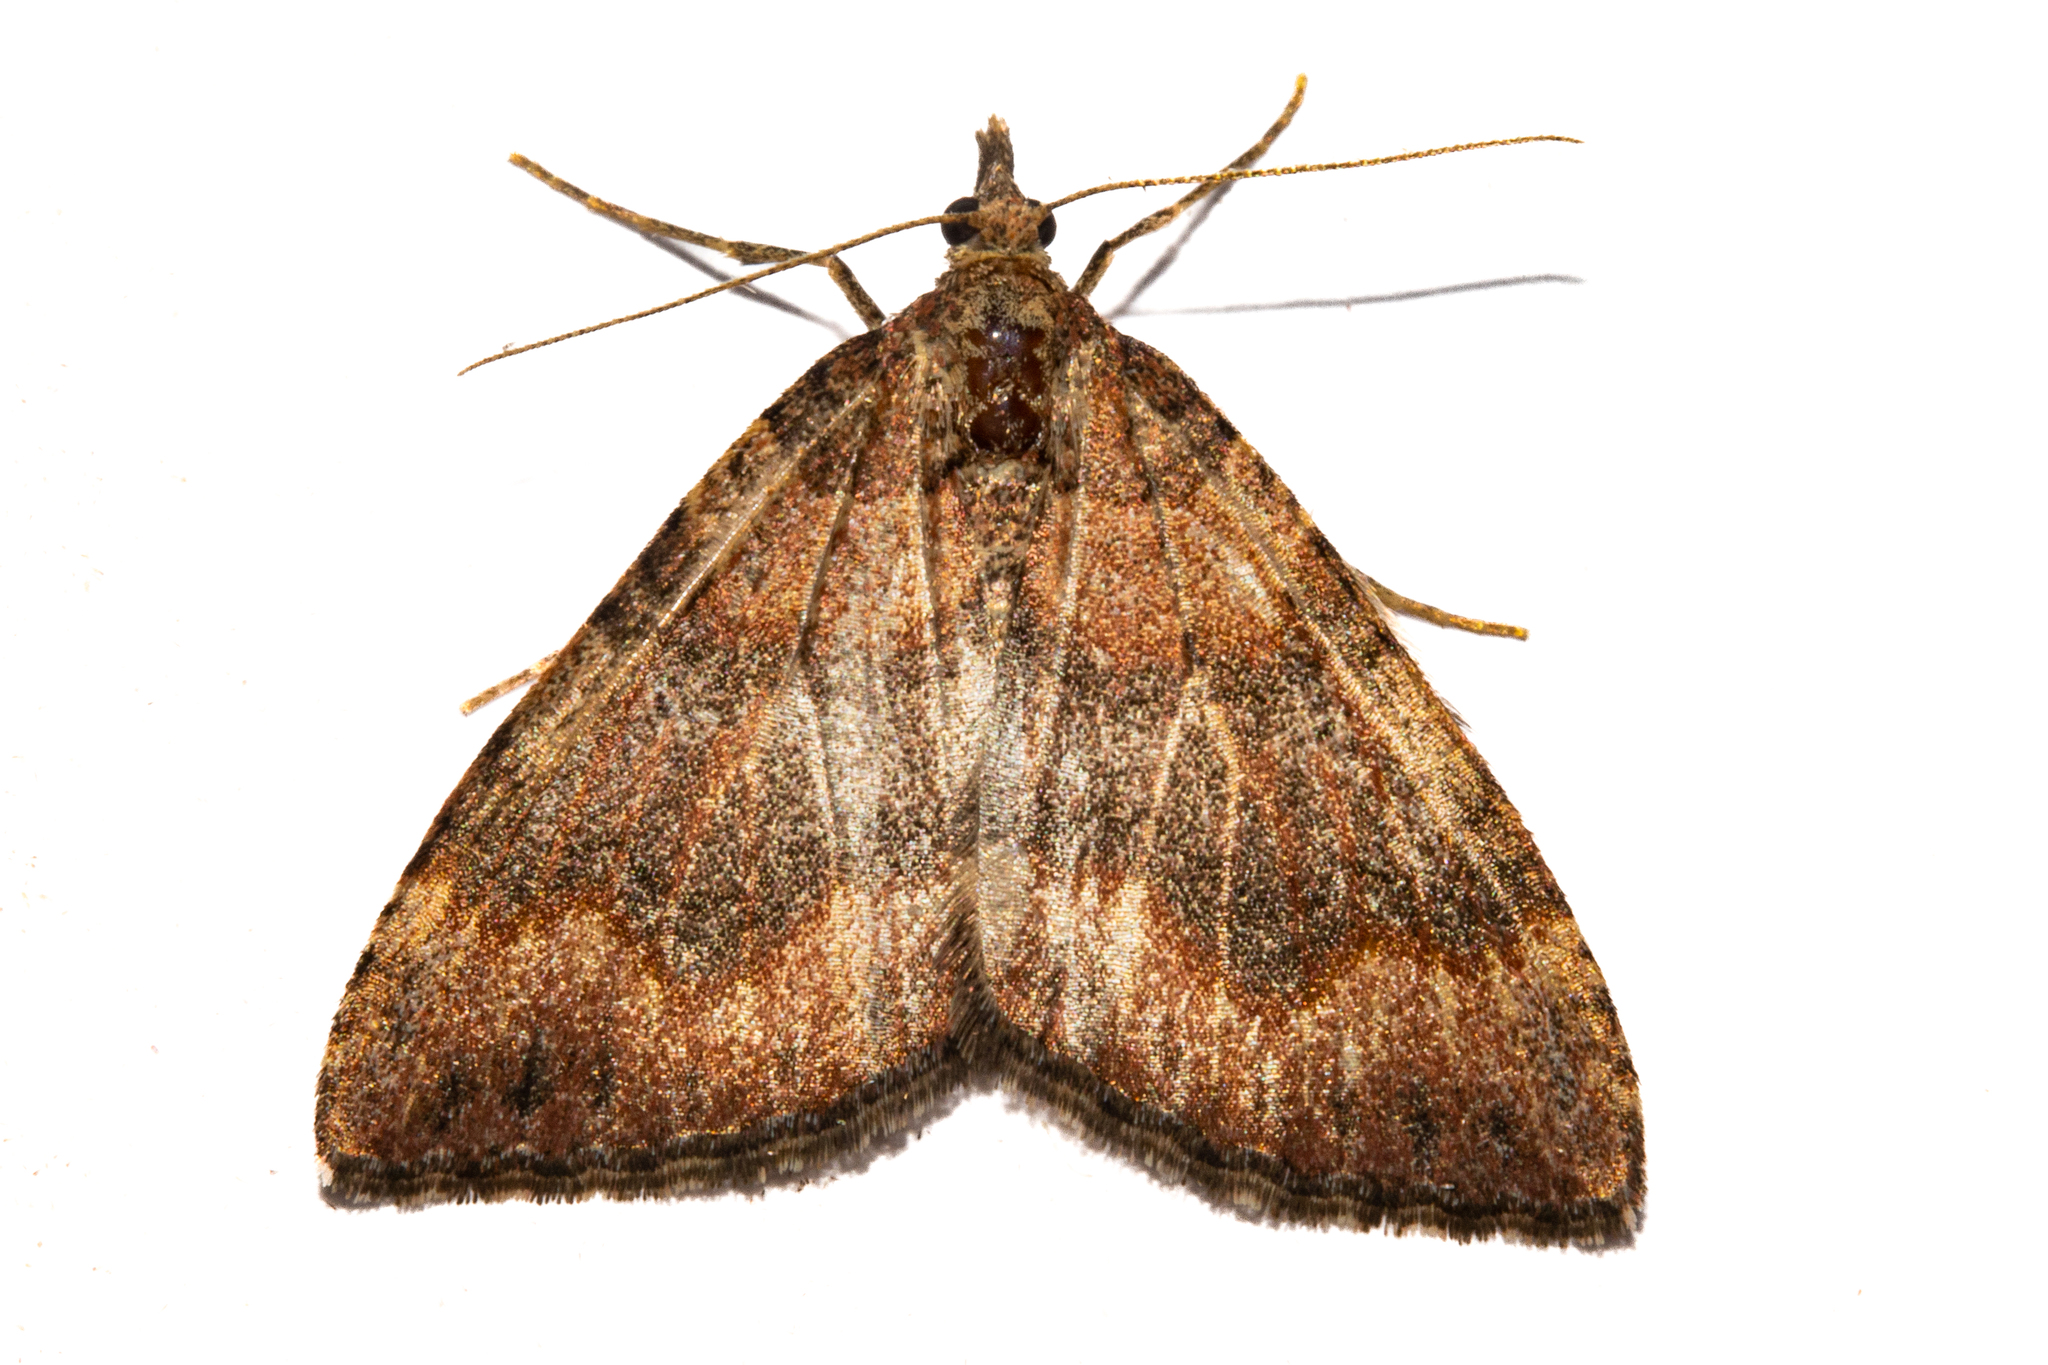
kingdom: Animalia
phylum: Arthropoda
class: Insecta
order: Lepidoptera
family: Geometridae
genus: Epyaxa
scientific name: Epyaxa rosearia
